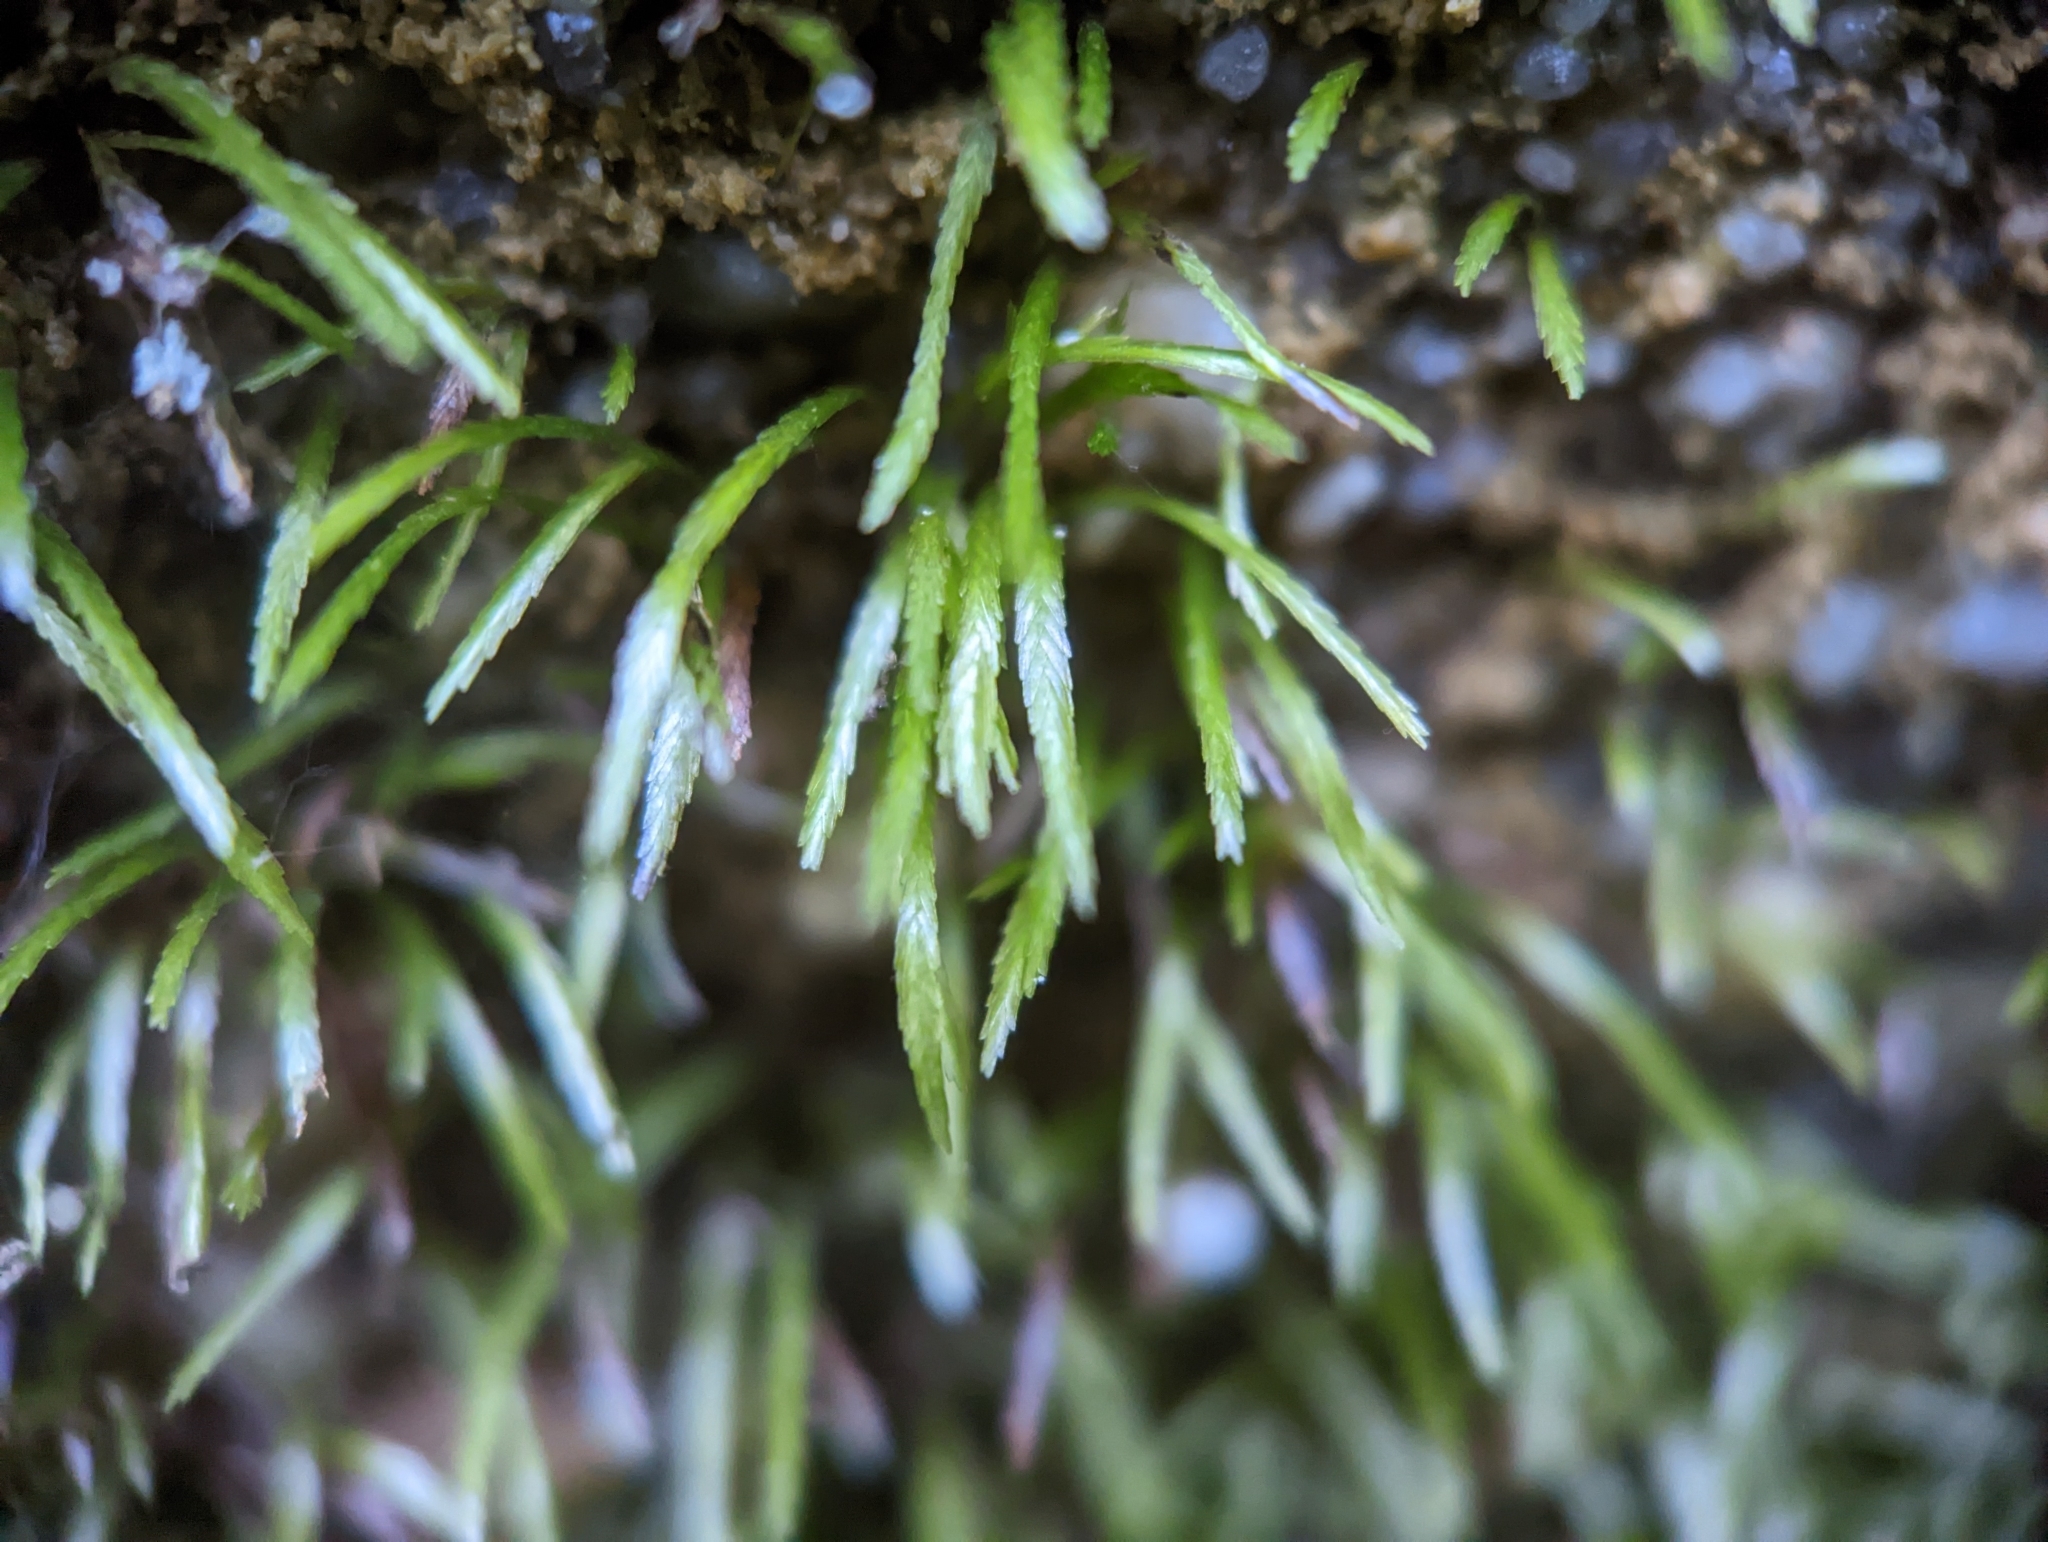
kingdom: Plantae
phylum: Bryophyta
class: Bryopsida
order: Bryoxiphiales
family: Bryoxiphiaceae
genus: Bryoxiphium
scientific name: Bryoxiphium norvegicum
